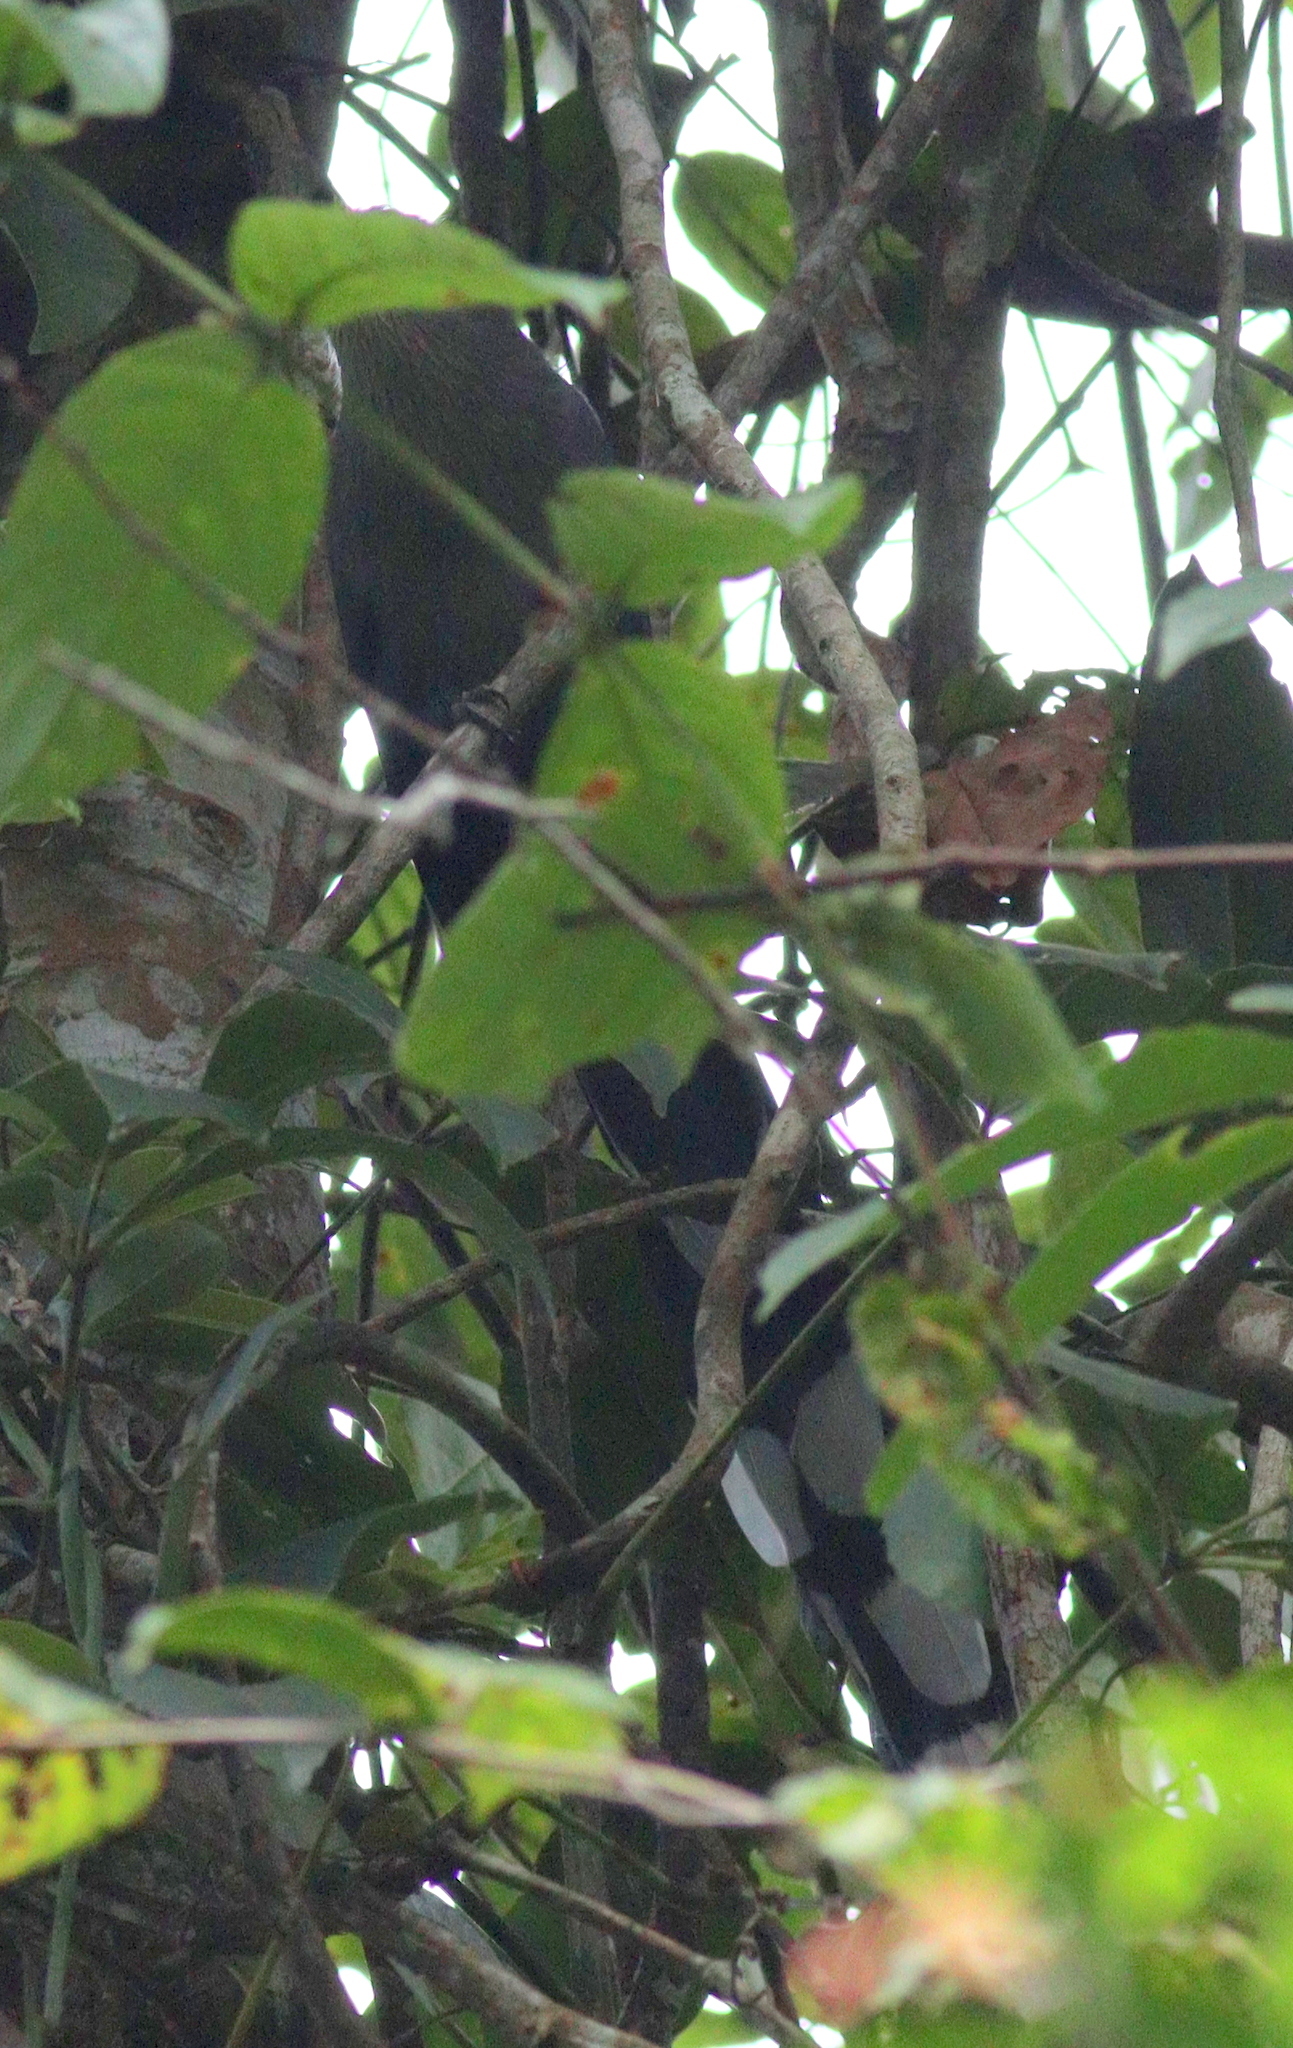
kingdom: Animalia
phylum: Chordata
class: Aves
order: Cuculiformes
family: Cuculidae
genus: Rhopodytes
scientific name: Rhopodytes tristis
